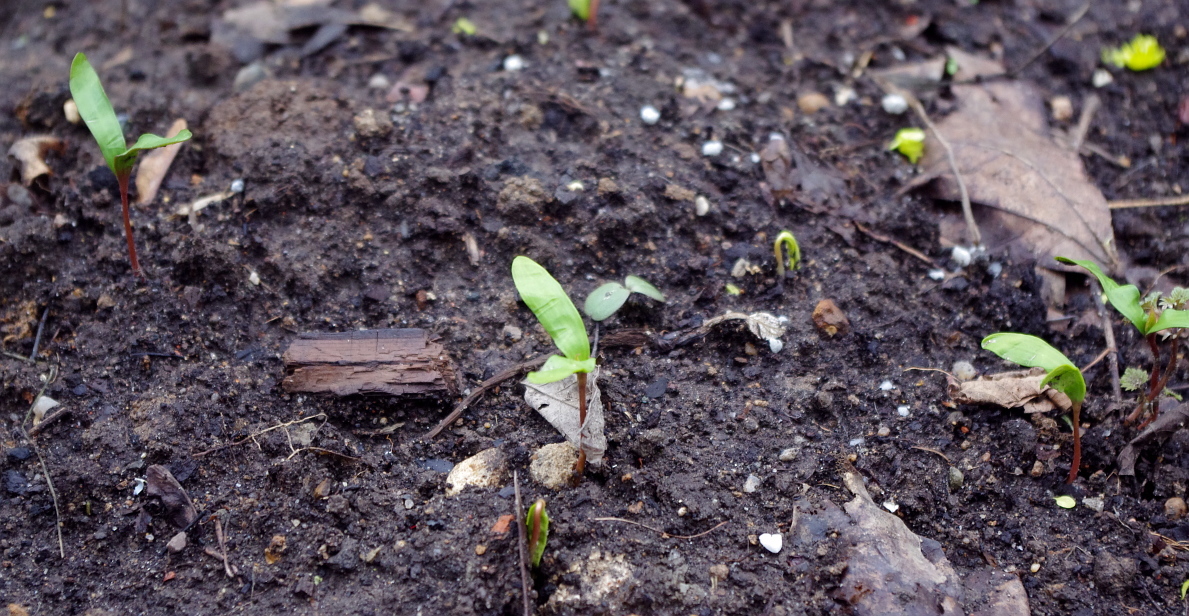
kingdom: Plantae
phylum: Tracheophyta
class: Magnoliopsida
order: Sapindales
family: Sapindaceae
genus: Acer
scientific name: Acer platanoides
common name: Norway maple
